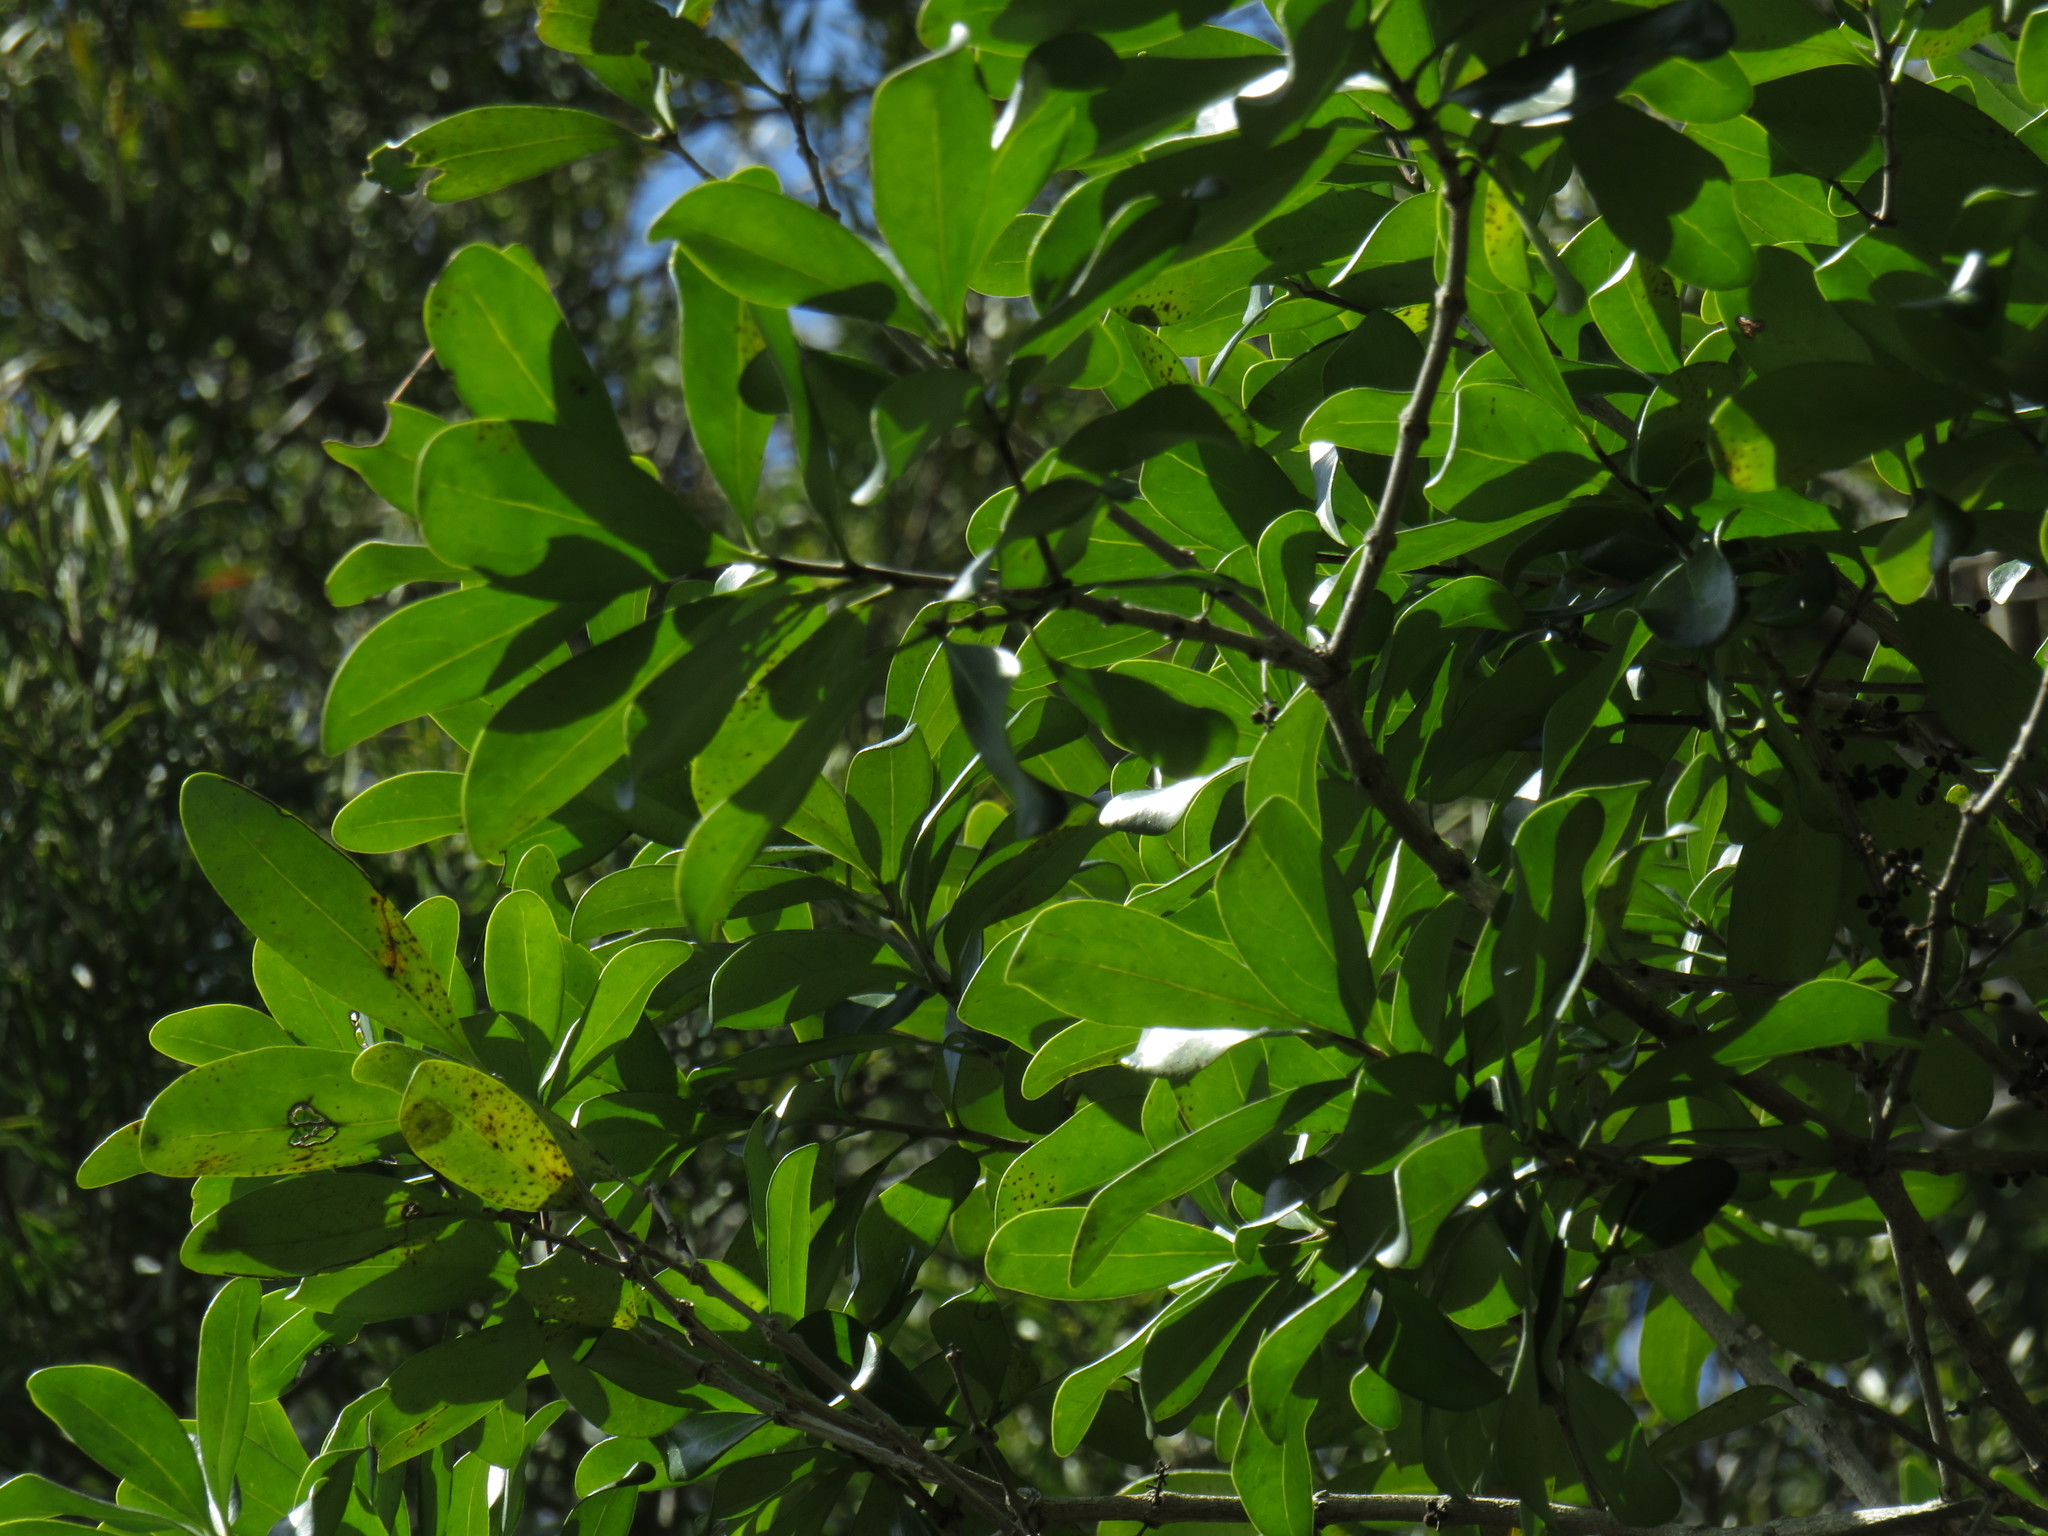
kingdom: Plantae
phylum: Tracheophyta
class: Magnoliopsida
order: Metteniusales
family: Metteniusaceae
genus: Apodytes
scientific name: Apodytes dimidiata
